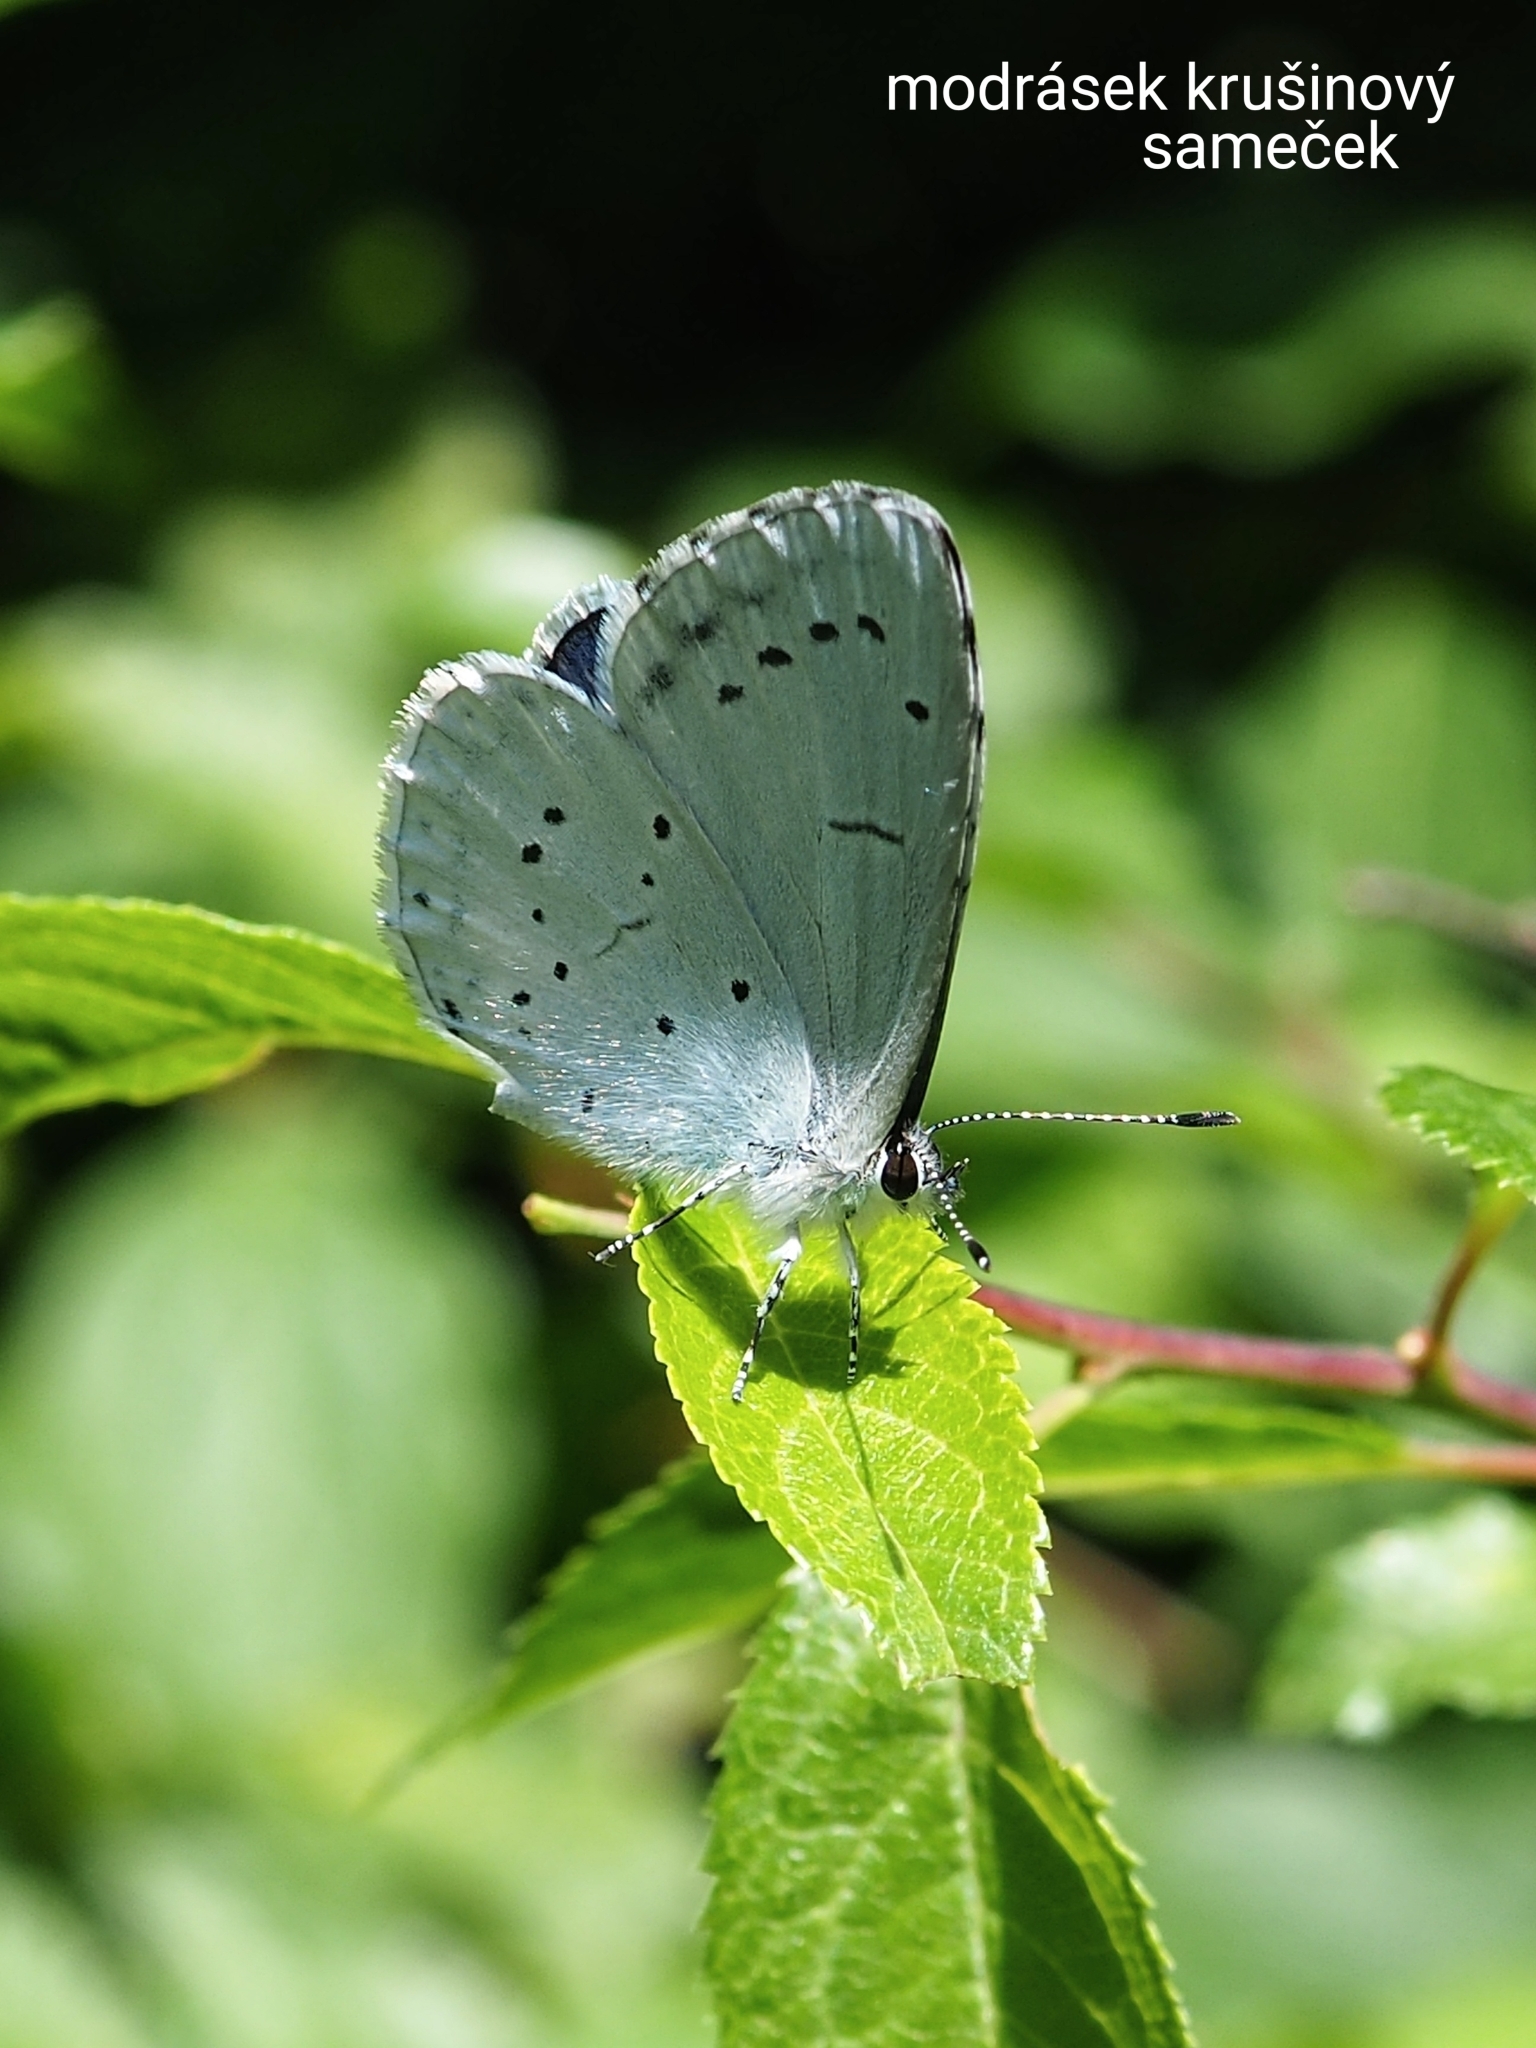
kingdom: Animalia
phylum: Arthropoda
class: Insecta
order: Lepidoptera
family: Lycaenidae
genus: Celastrina
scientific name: Celastrina argiolus
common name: Holly blue
